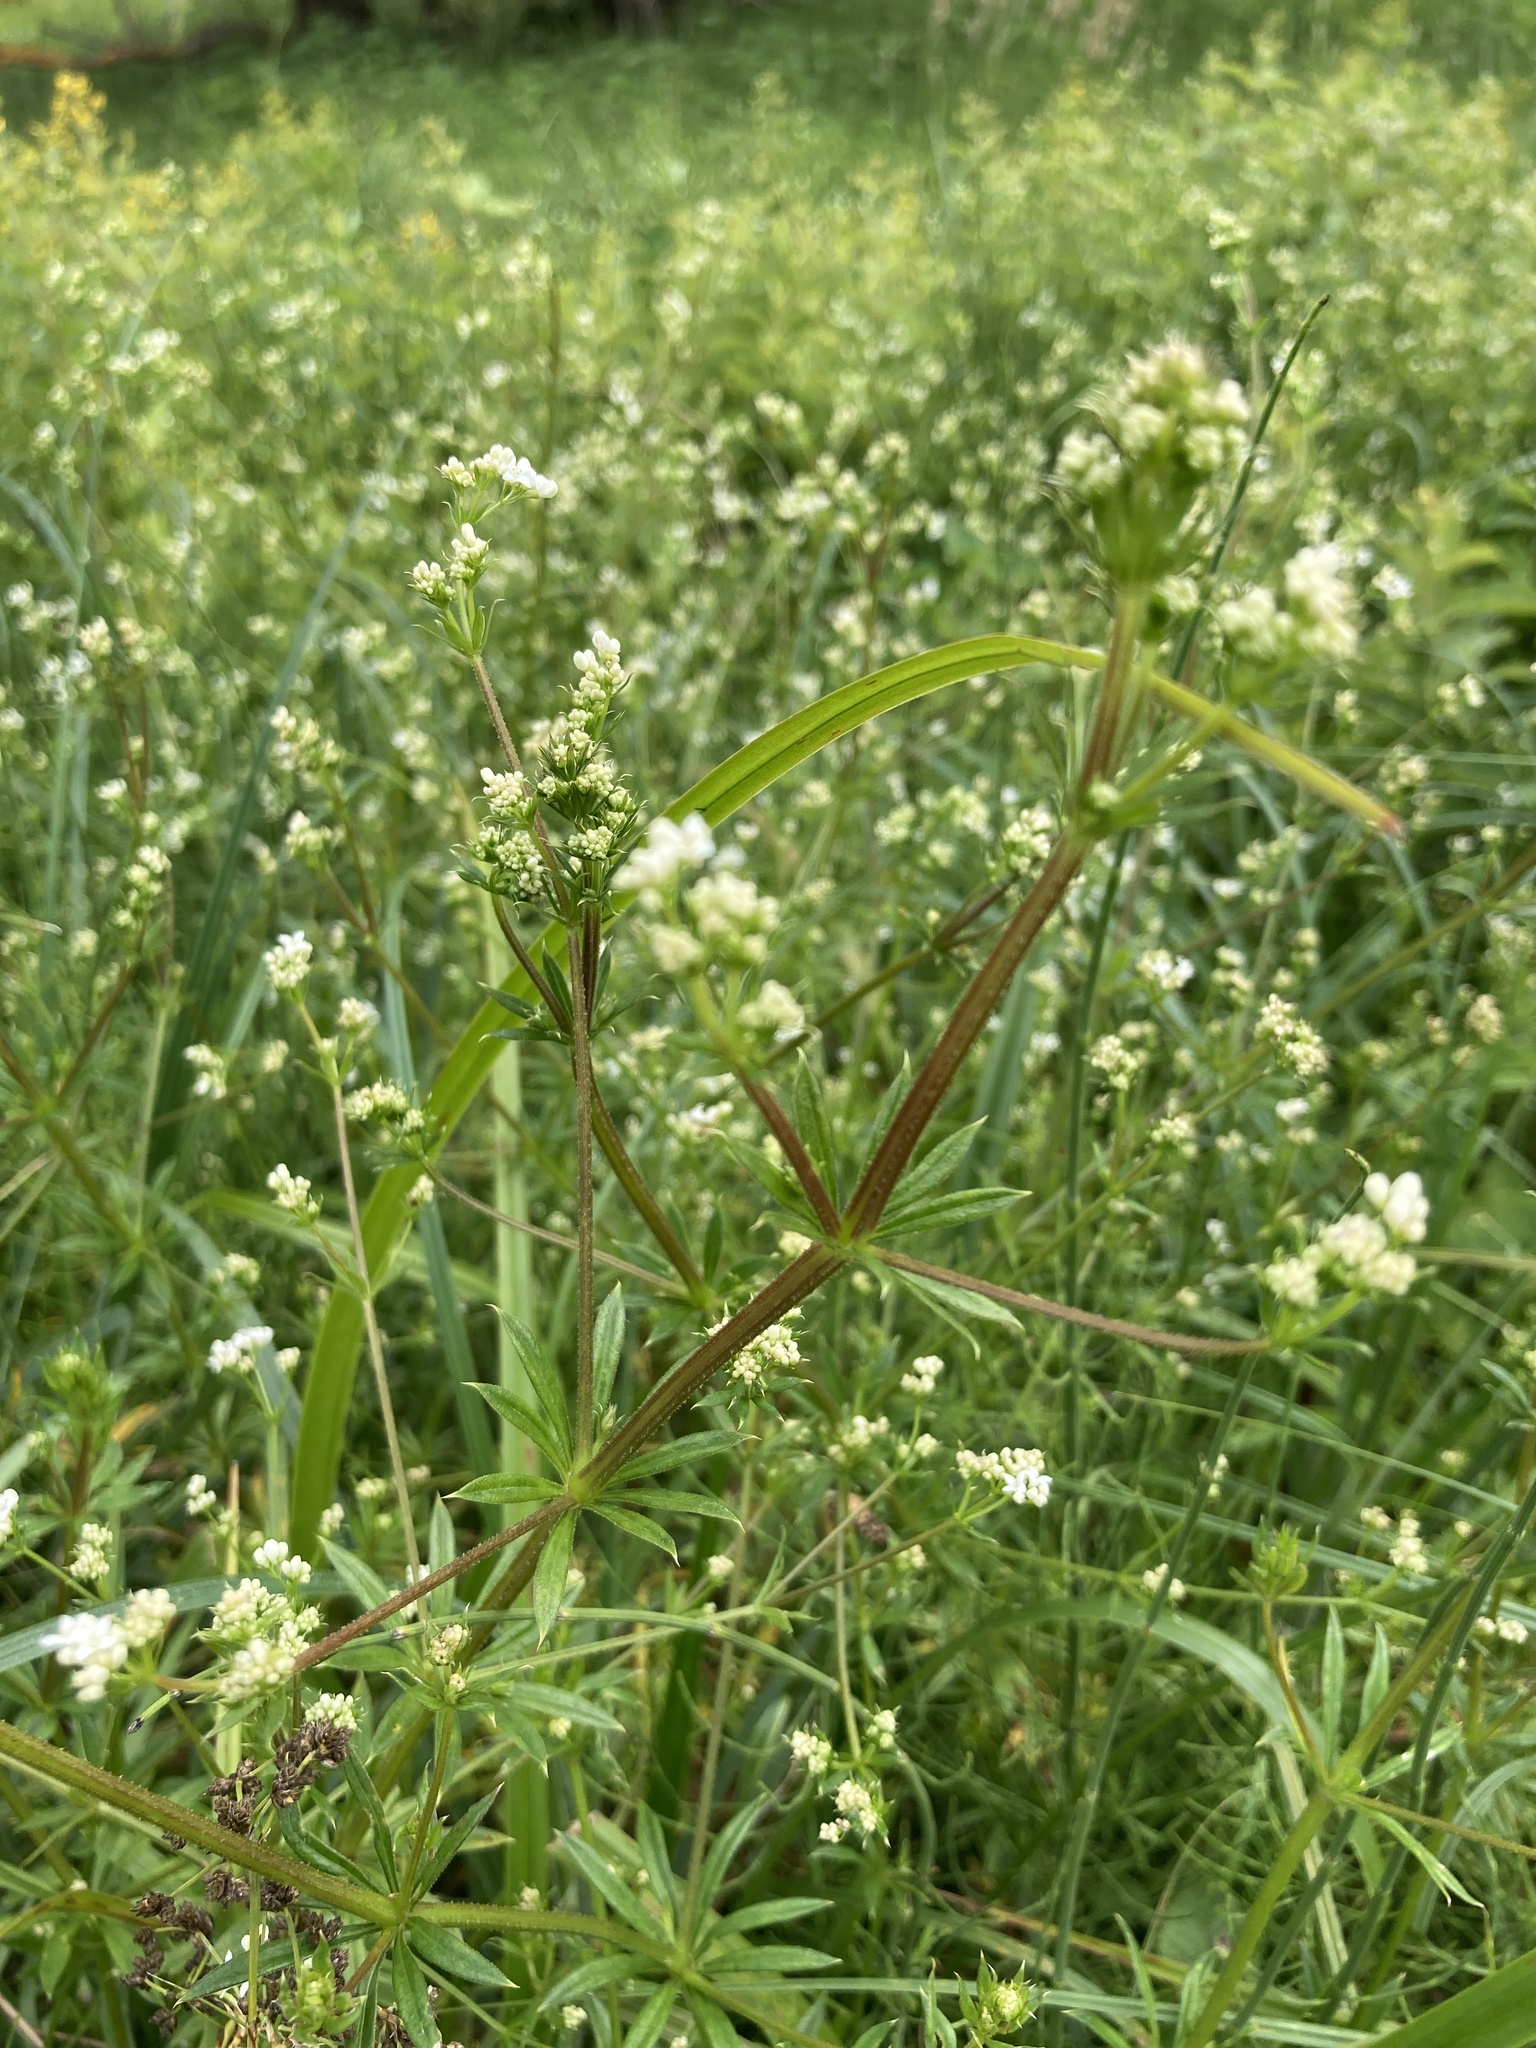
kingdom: Plantae
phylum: Tracheophyta
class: Magnoliopsida
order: Gentianales
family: Rubiaceae
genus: Galium
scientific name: Galium rivale
